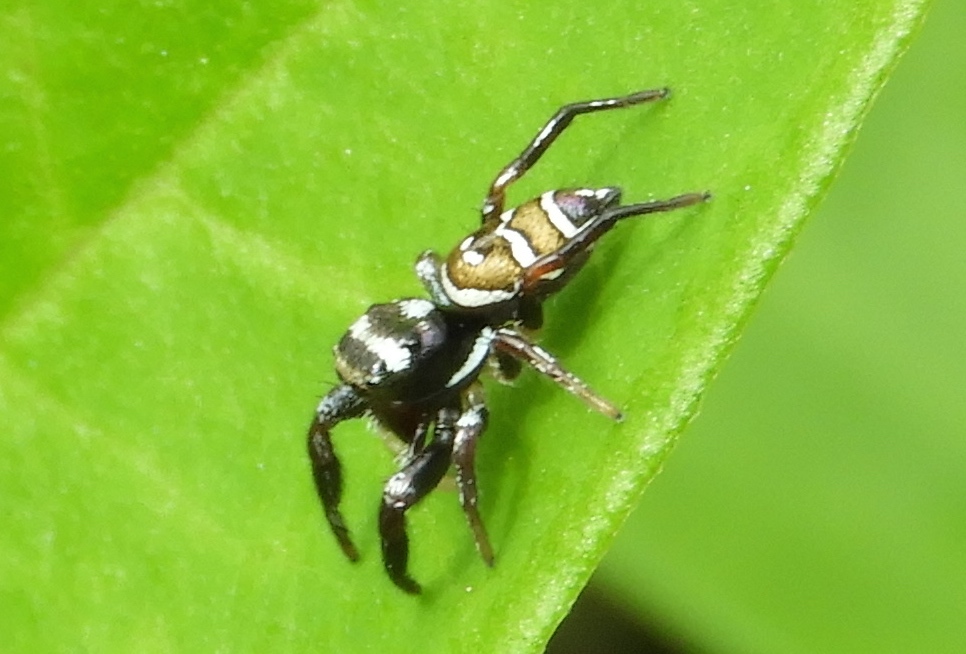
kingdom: Animalia
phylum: Arthropoda
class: Arachnida
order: Araneae
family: Salticidae
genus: Sassacus
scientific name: Sassacus
